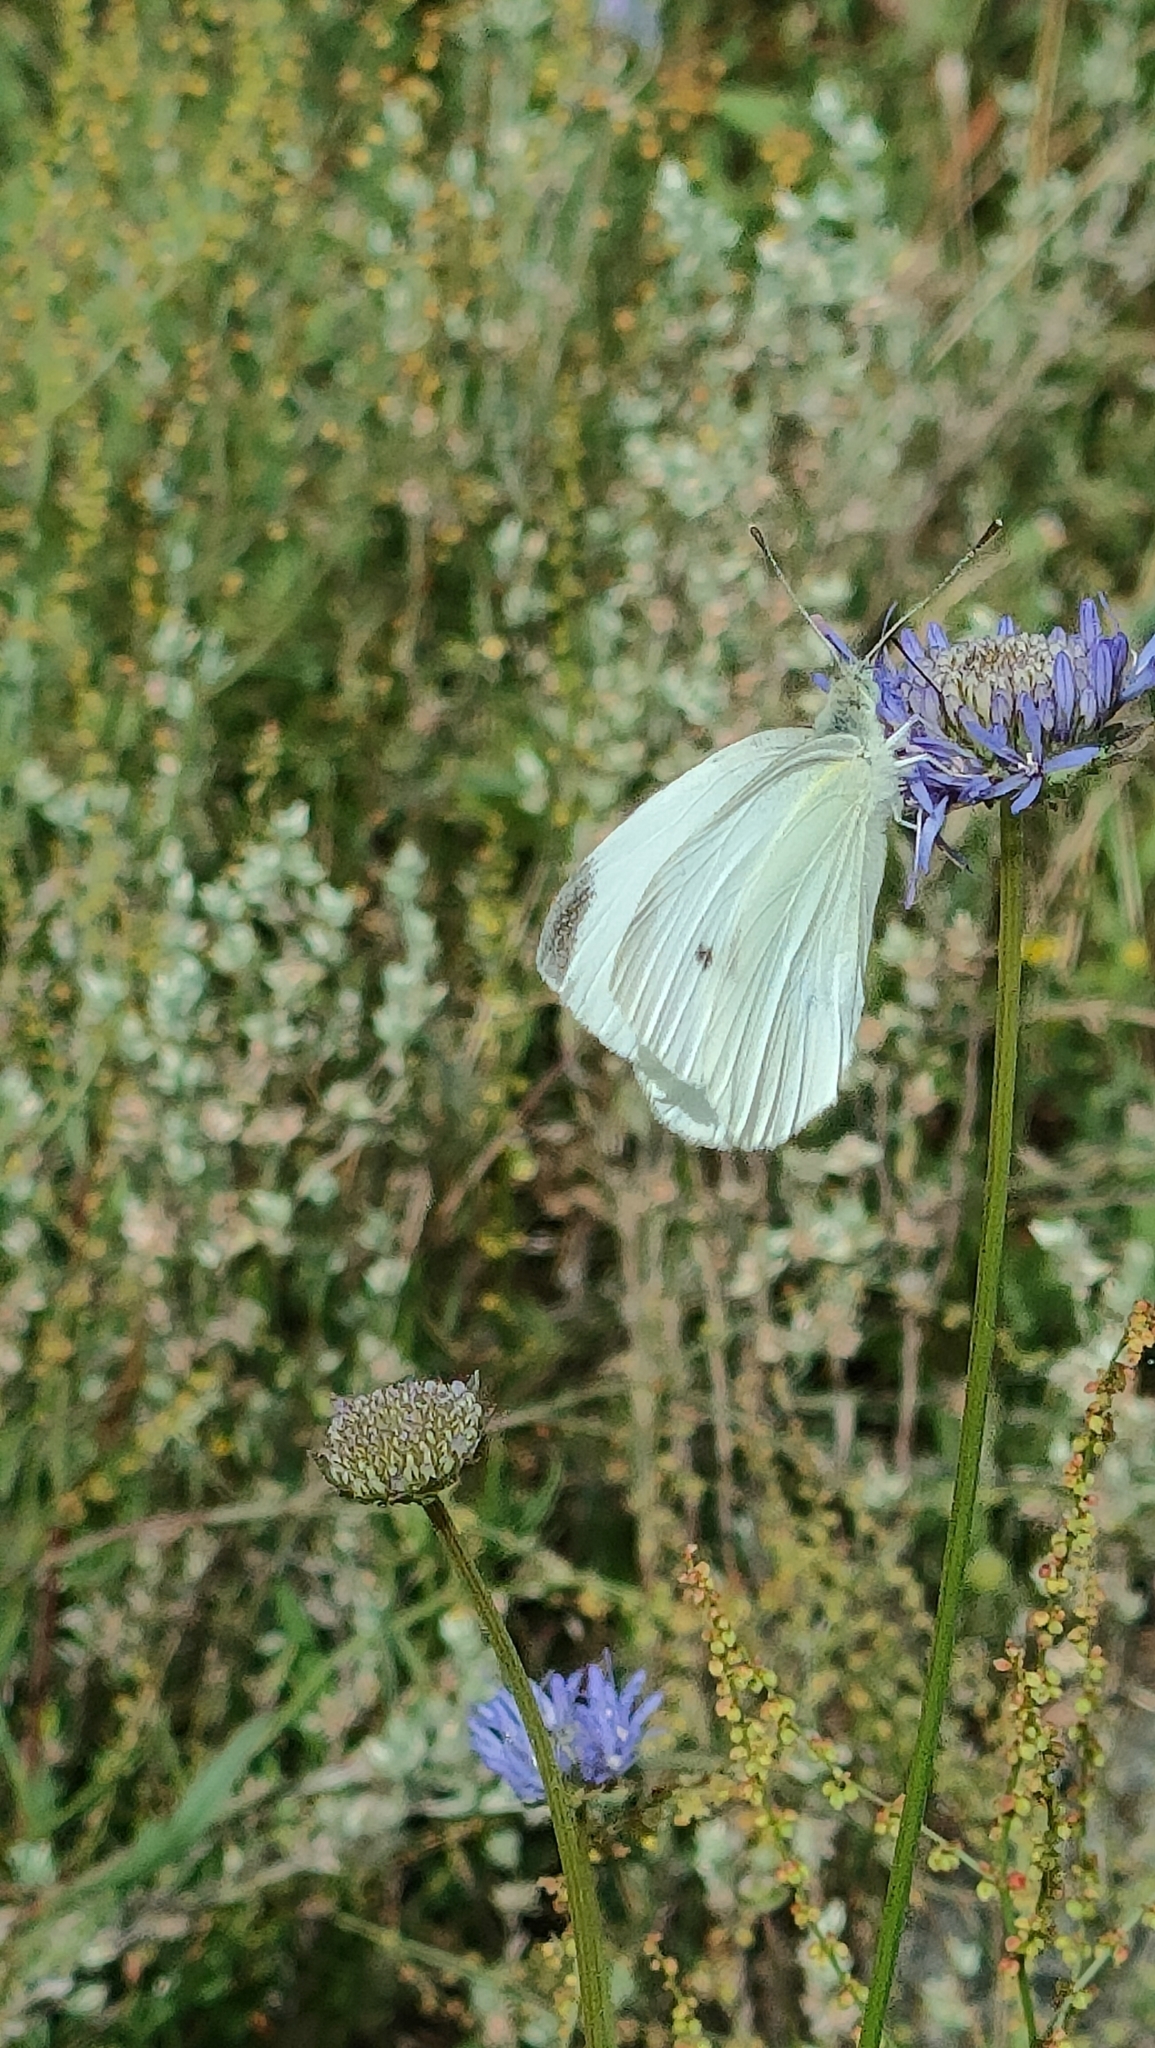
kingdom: Animalia
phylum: Arthropoda
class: Insecta
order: Lepidoptera
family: Pieridae
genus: Pieris
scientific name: Pieris rapae
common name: Small white
